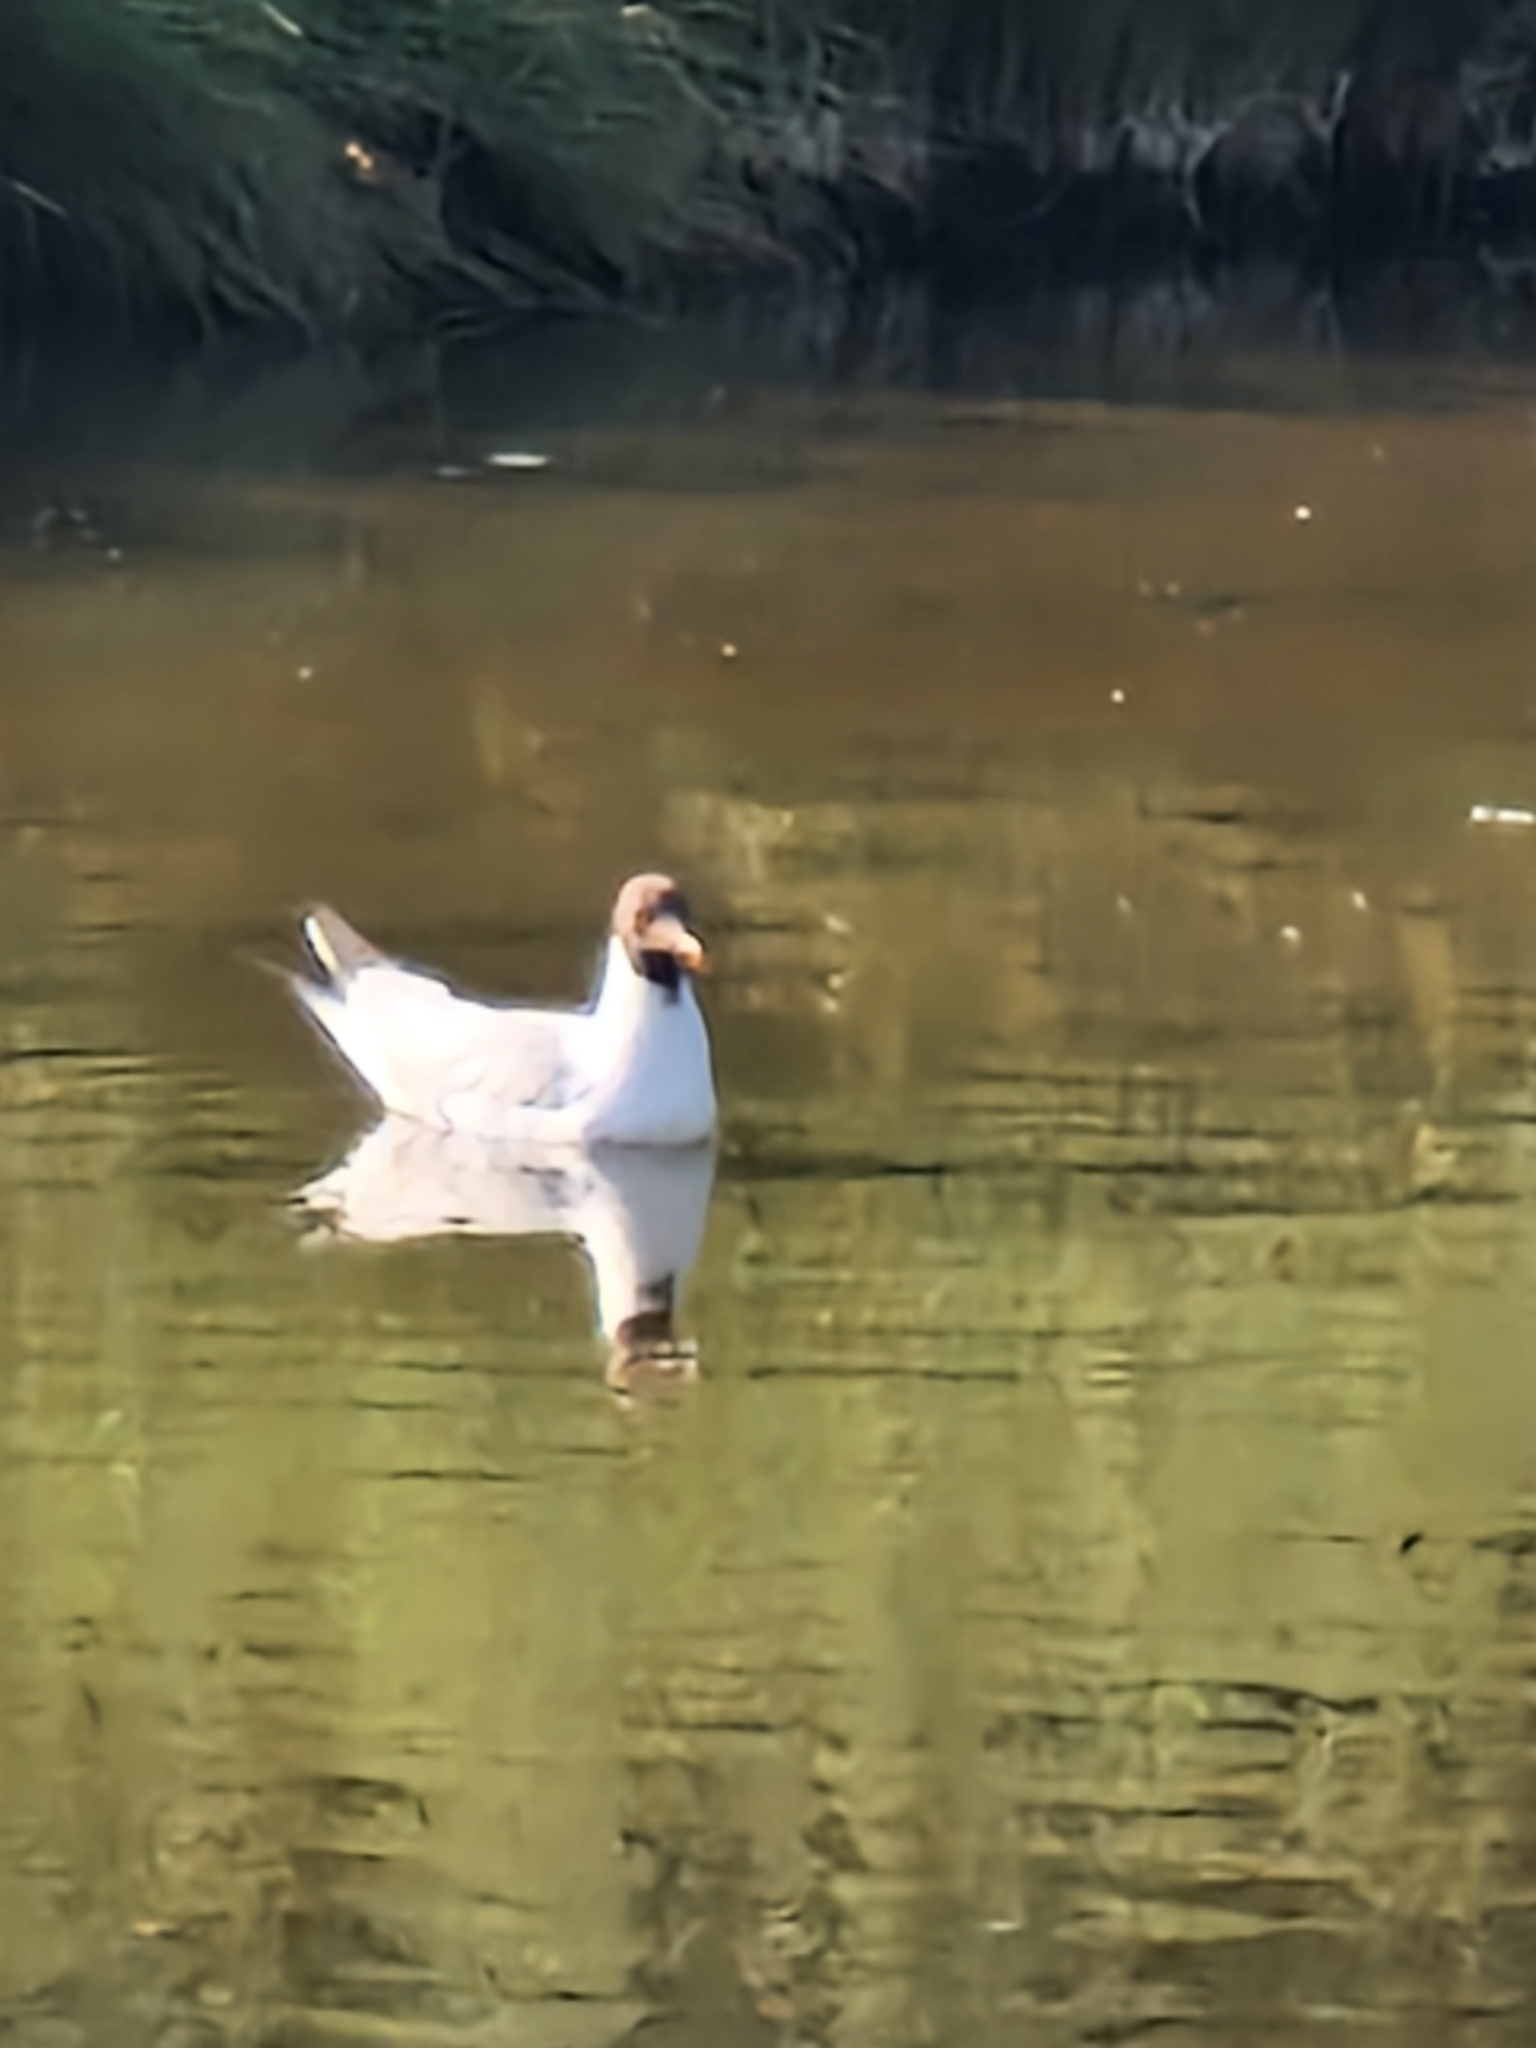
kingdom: Animalia
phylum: Chordata
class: Aves
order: Charadriiformes
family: Laridae
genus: Chroicocephalus
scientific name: Chroicocephalus ridibundus
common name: Black-headed gull
